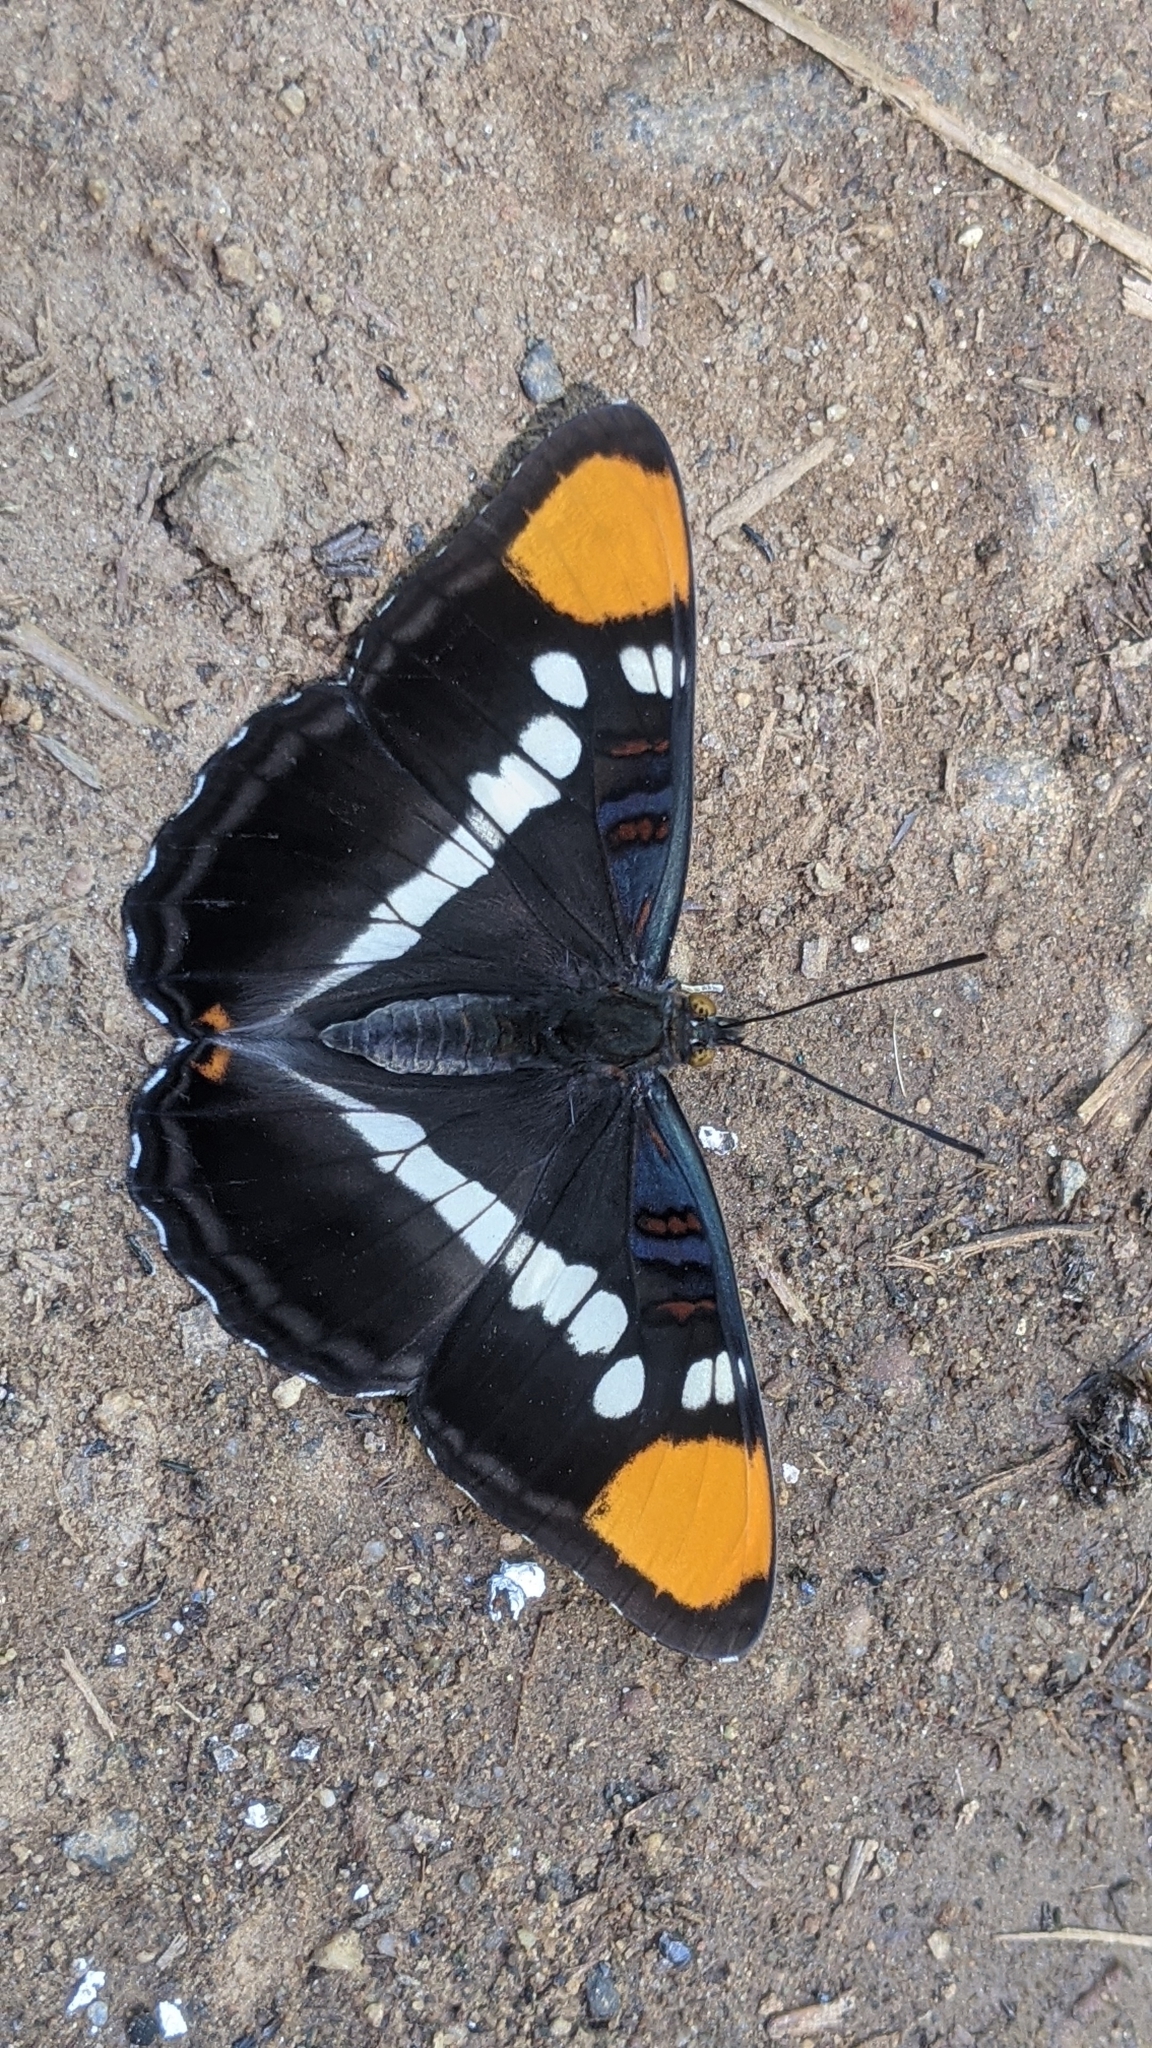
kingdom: Animalia
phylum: Arthropoda
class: Insecta
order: Lepidoptera
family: Nymphalidae
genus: Limenitis
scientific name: Limenitis bredowii
